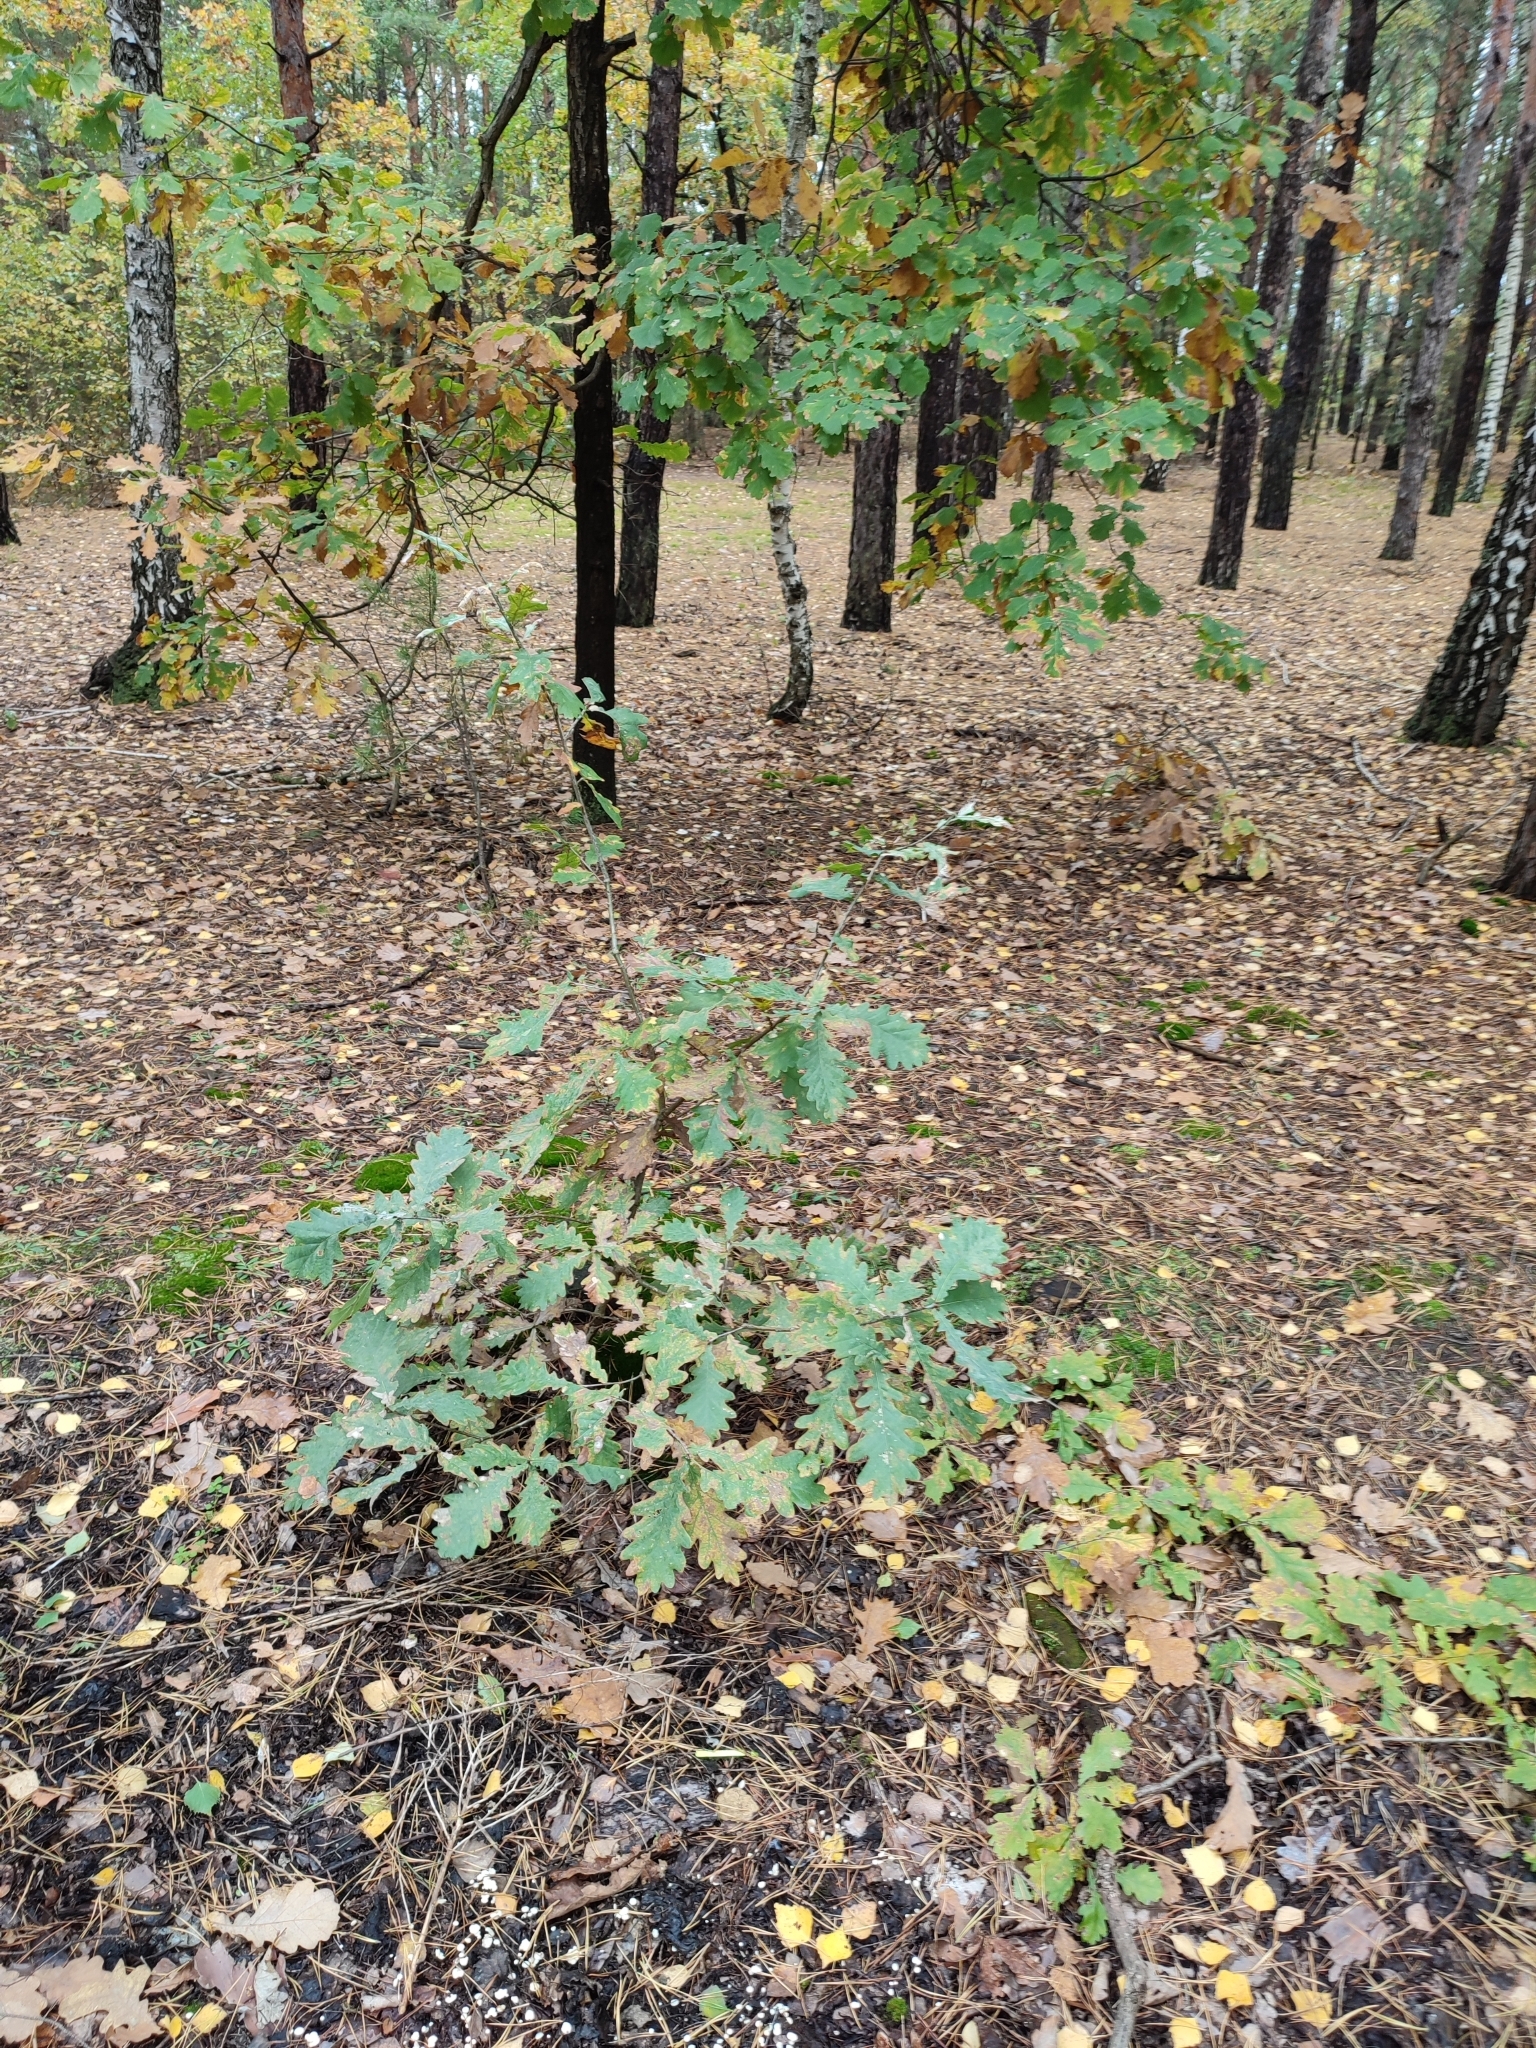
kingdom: Plantae
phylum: Tracheophyta
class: Magnoliopsida
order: Fagales
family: Fagaceae
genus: Quercus
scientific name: Quercus robur
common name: Pedunculate oak
